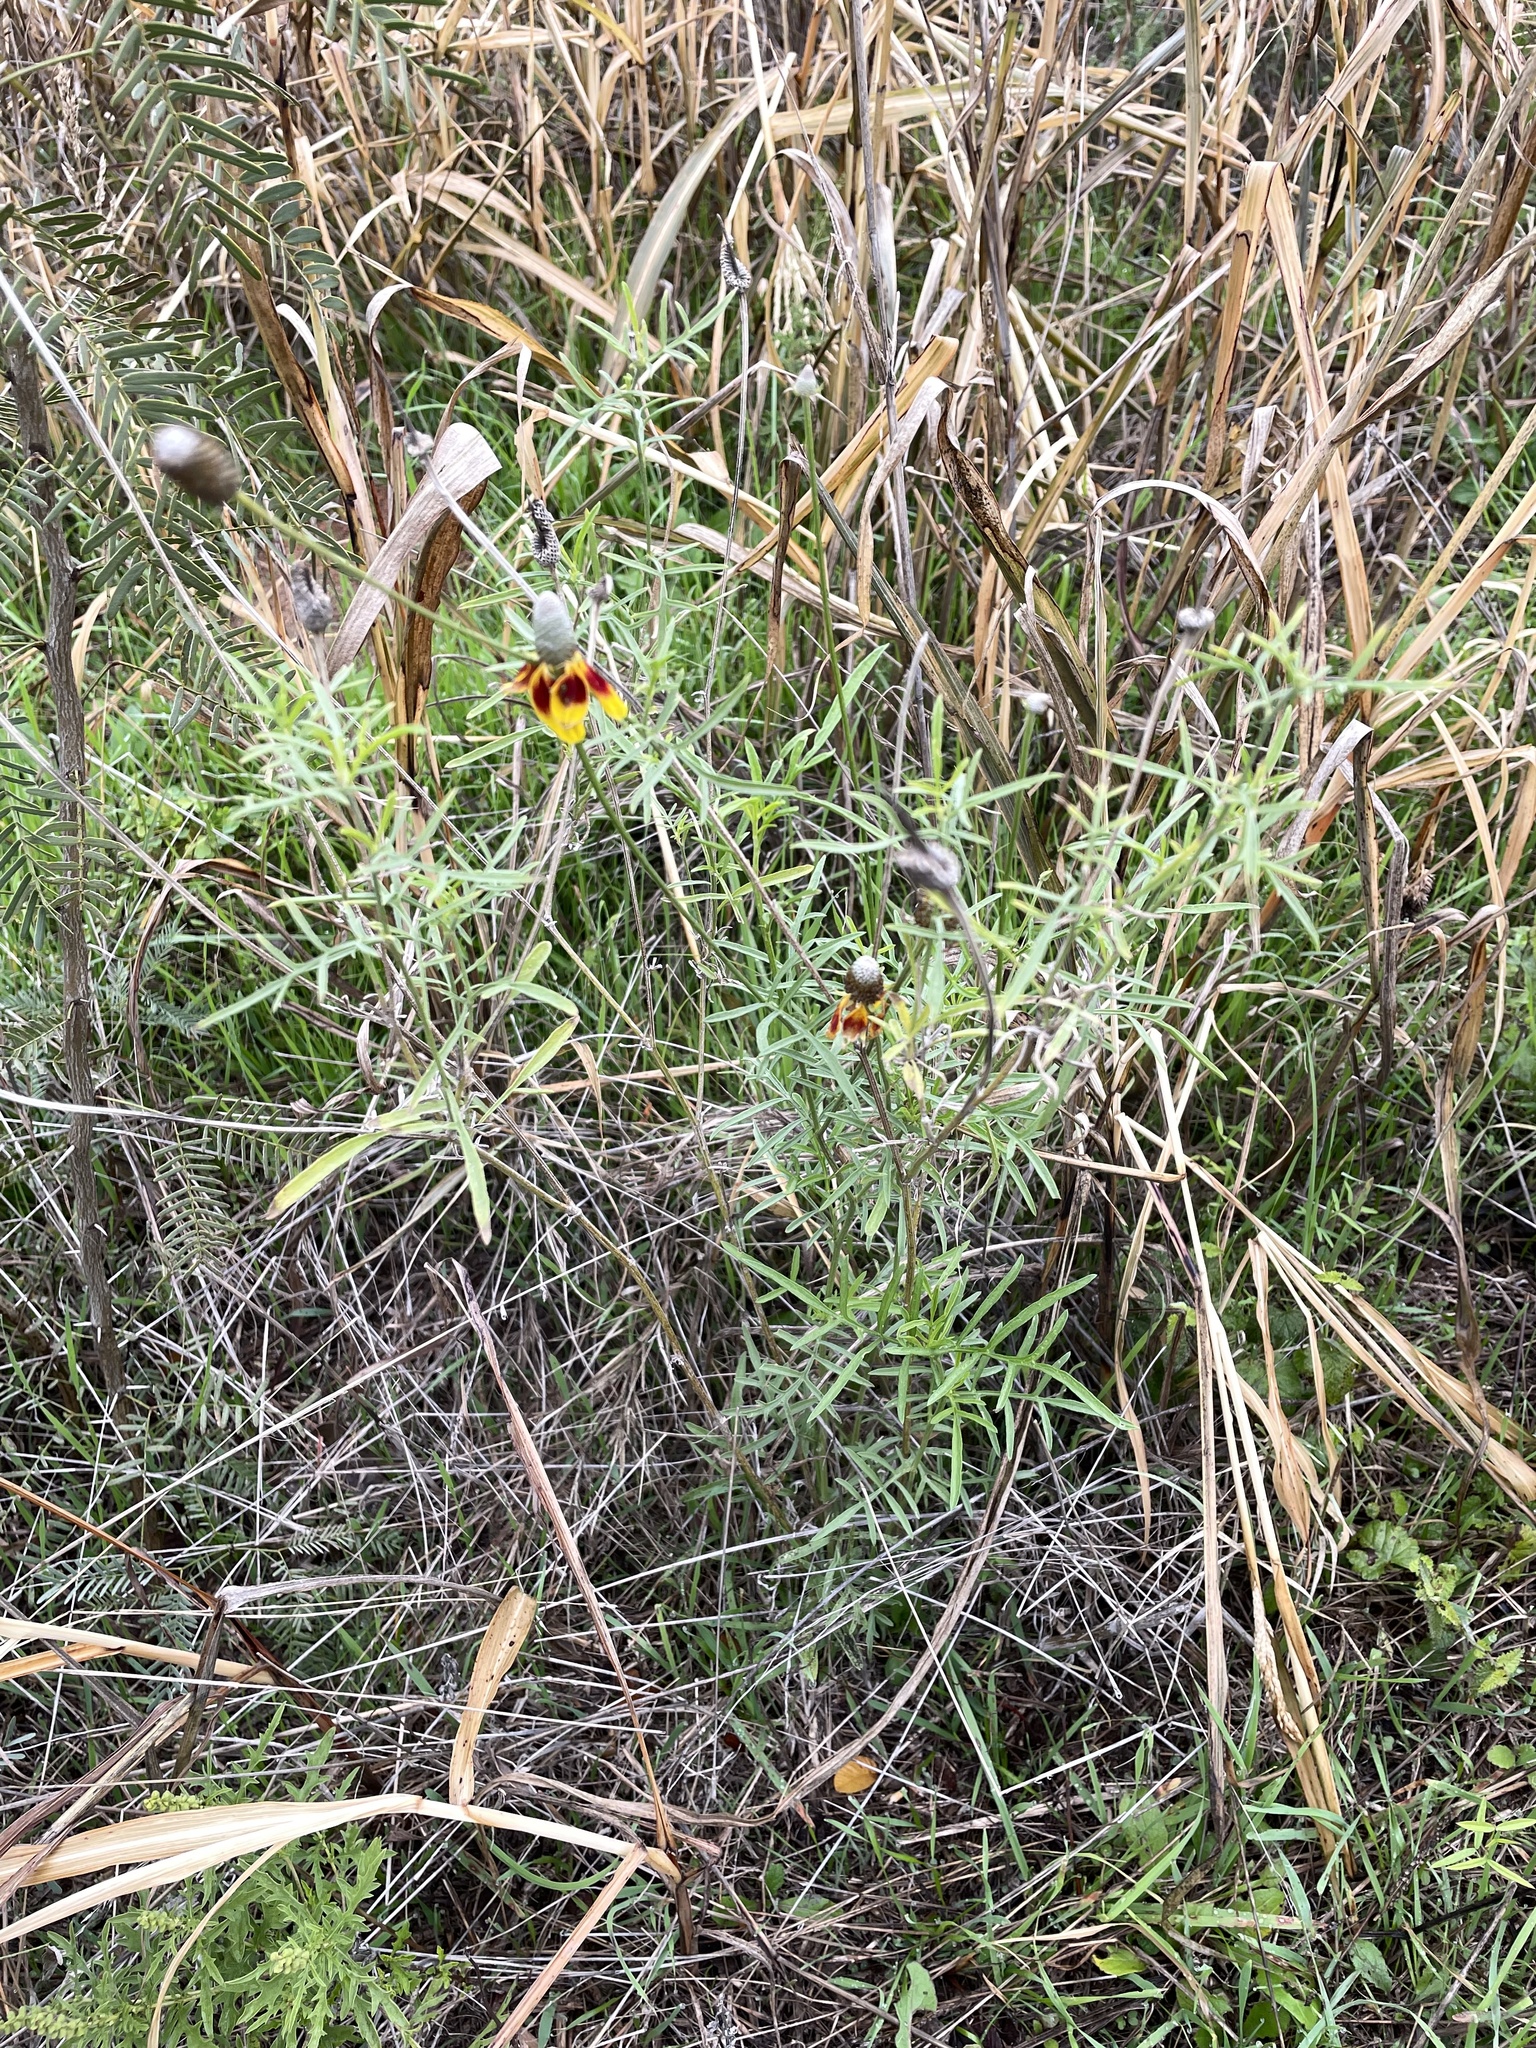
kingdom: Plantae
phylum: Tracheophyta
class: Magnoliopsida
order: Asterales
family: Asteraceae
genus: Ratibida
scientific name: Ratibida columnifera
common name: Prairie coneflower
